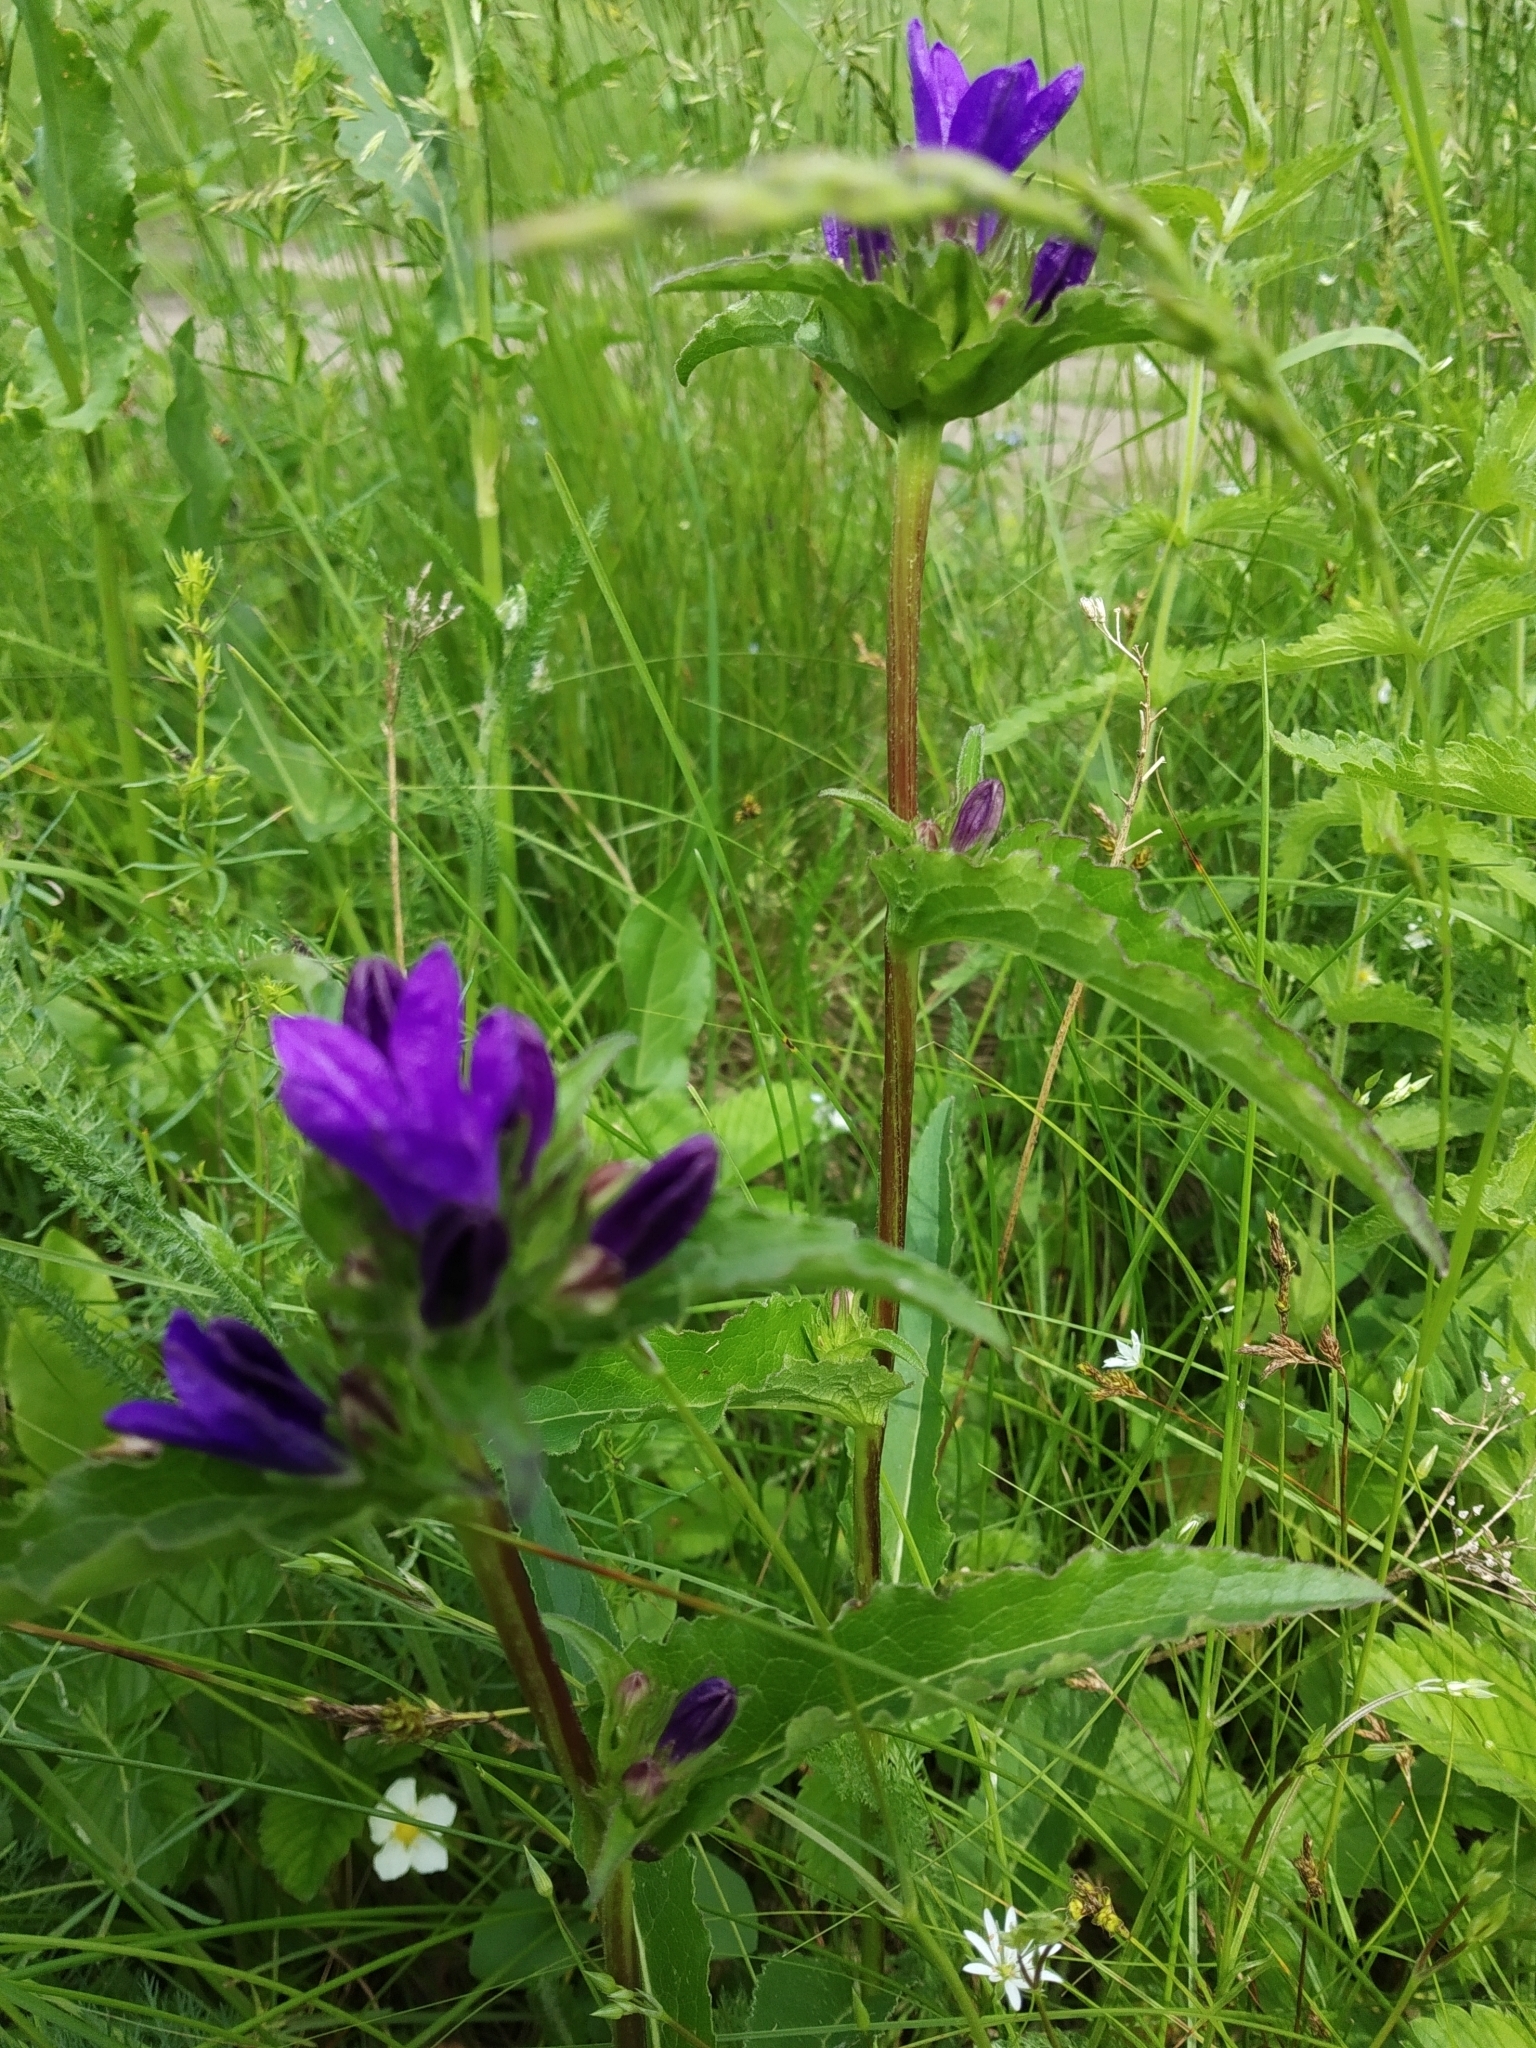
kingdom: Plantae
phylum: Tracheophyta
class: Magnoliopsida
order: Asterales
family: Campanulaceae
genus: Campanula
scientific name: Campanula glomerata
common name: Clustered bellflower
